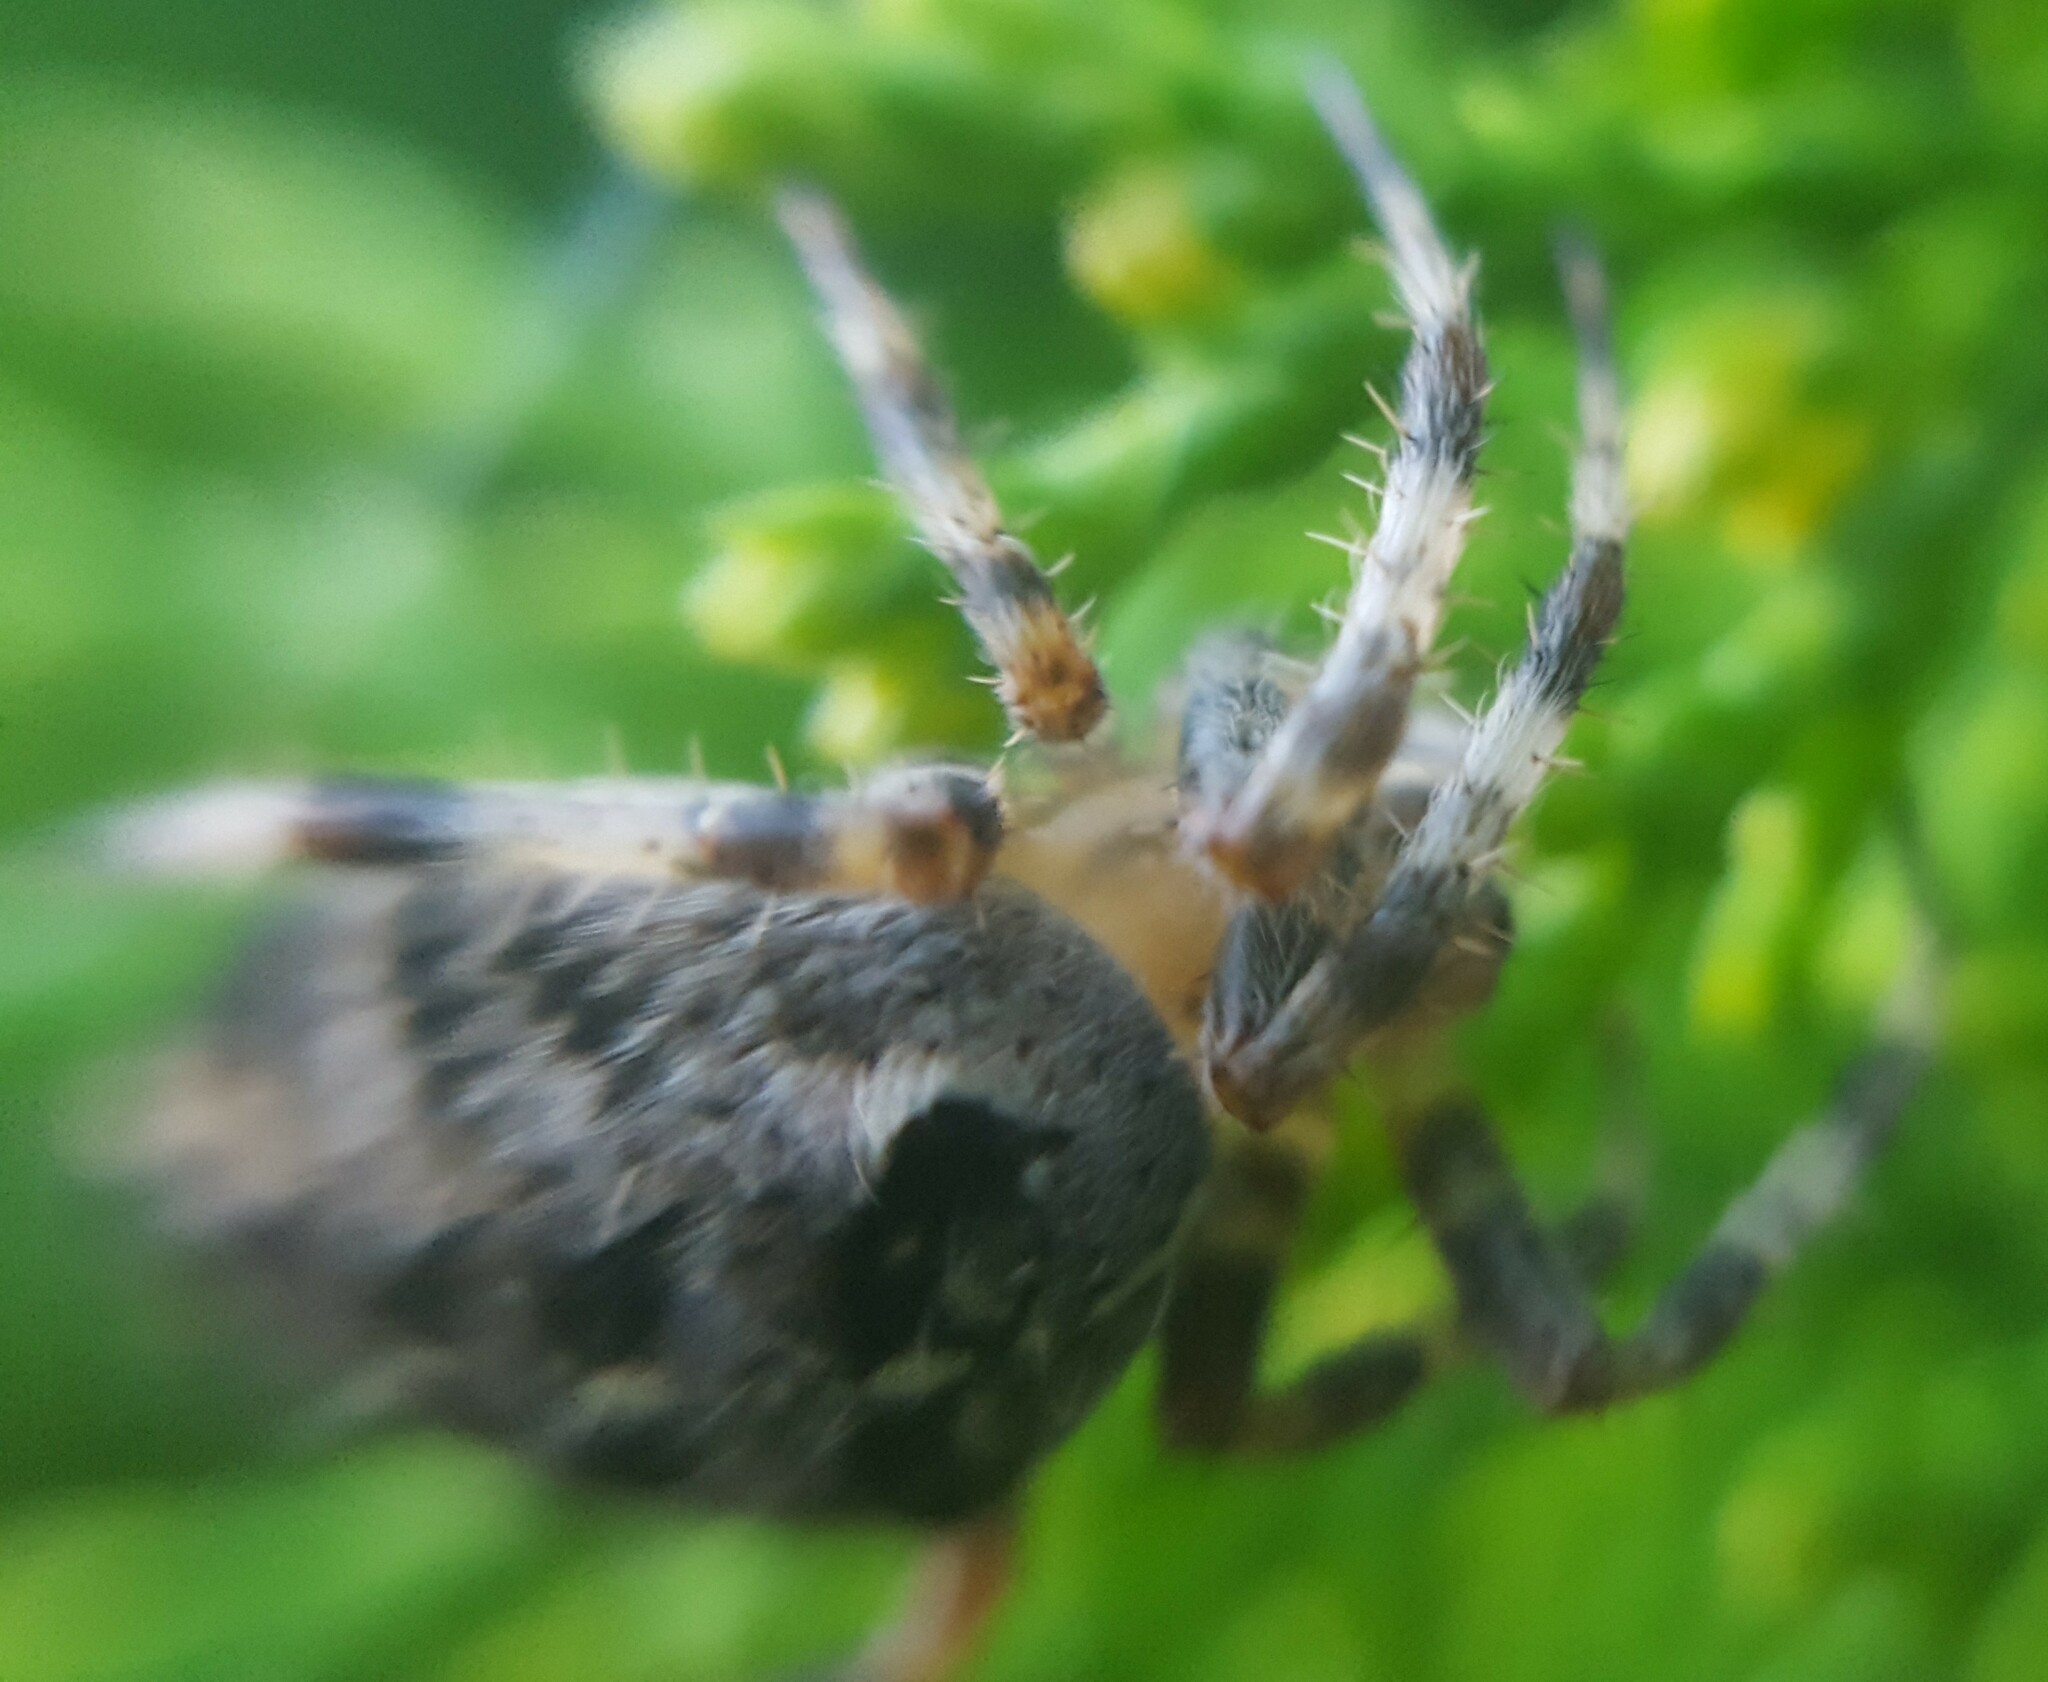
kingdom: Animalia
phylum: Arthropoda
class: Arachnida
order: Araneae
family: Araneidae
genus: Araneus
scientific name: Araneus diadematus
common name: Cross orbweaver
